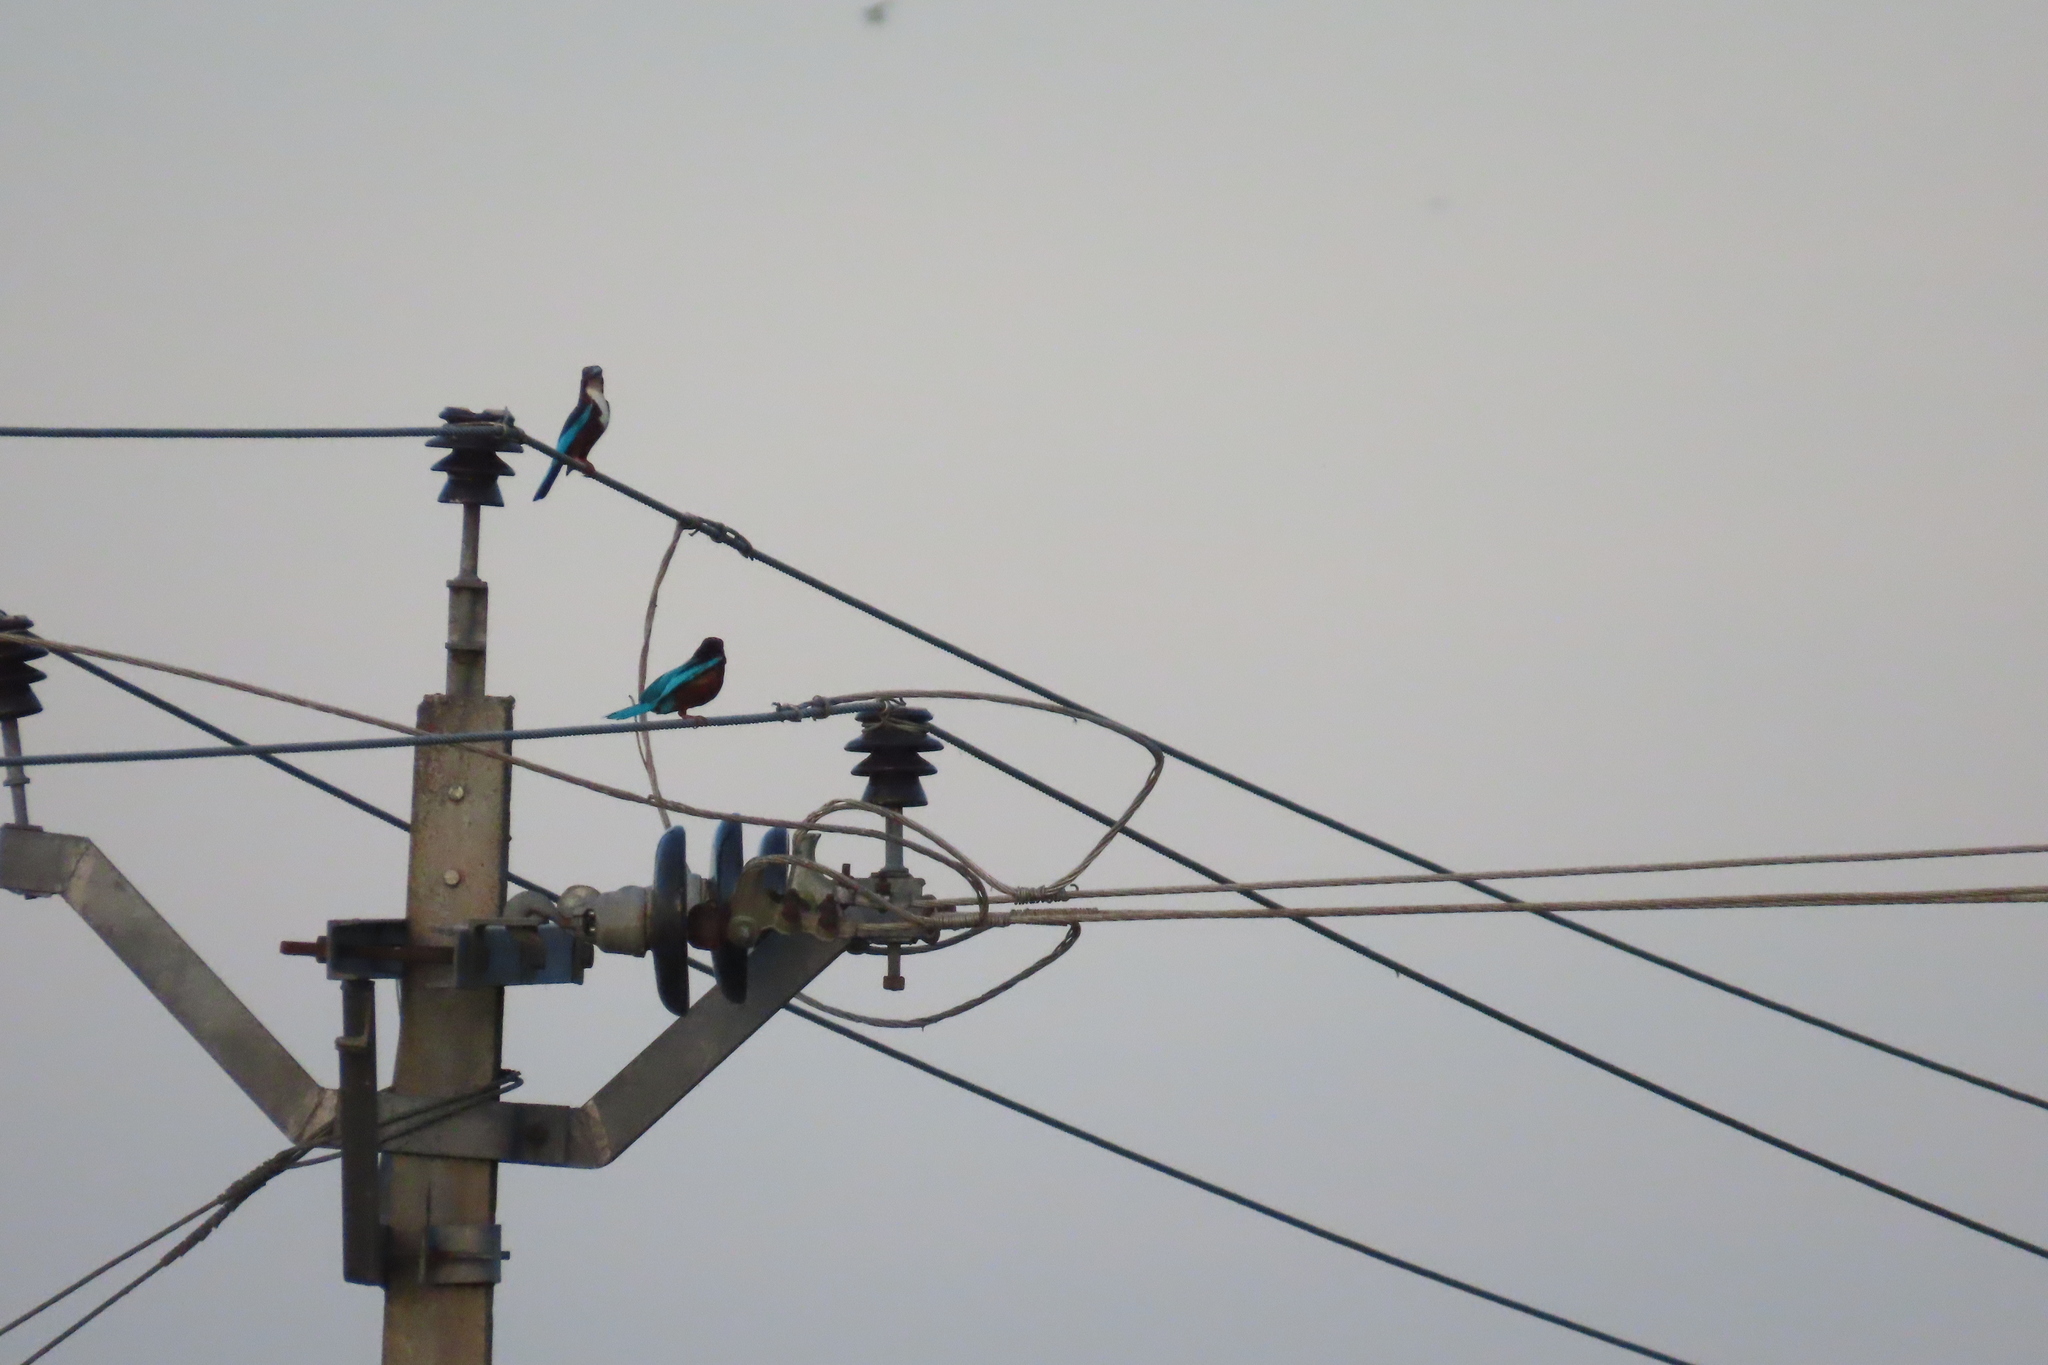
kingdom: Animalia
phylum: Chordata
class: Aves
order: Coraciiformes
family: Alcedinidae
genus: Halcyon
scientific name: Halcyon smyrnensis
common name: White-throated kingfisher
